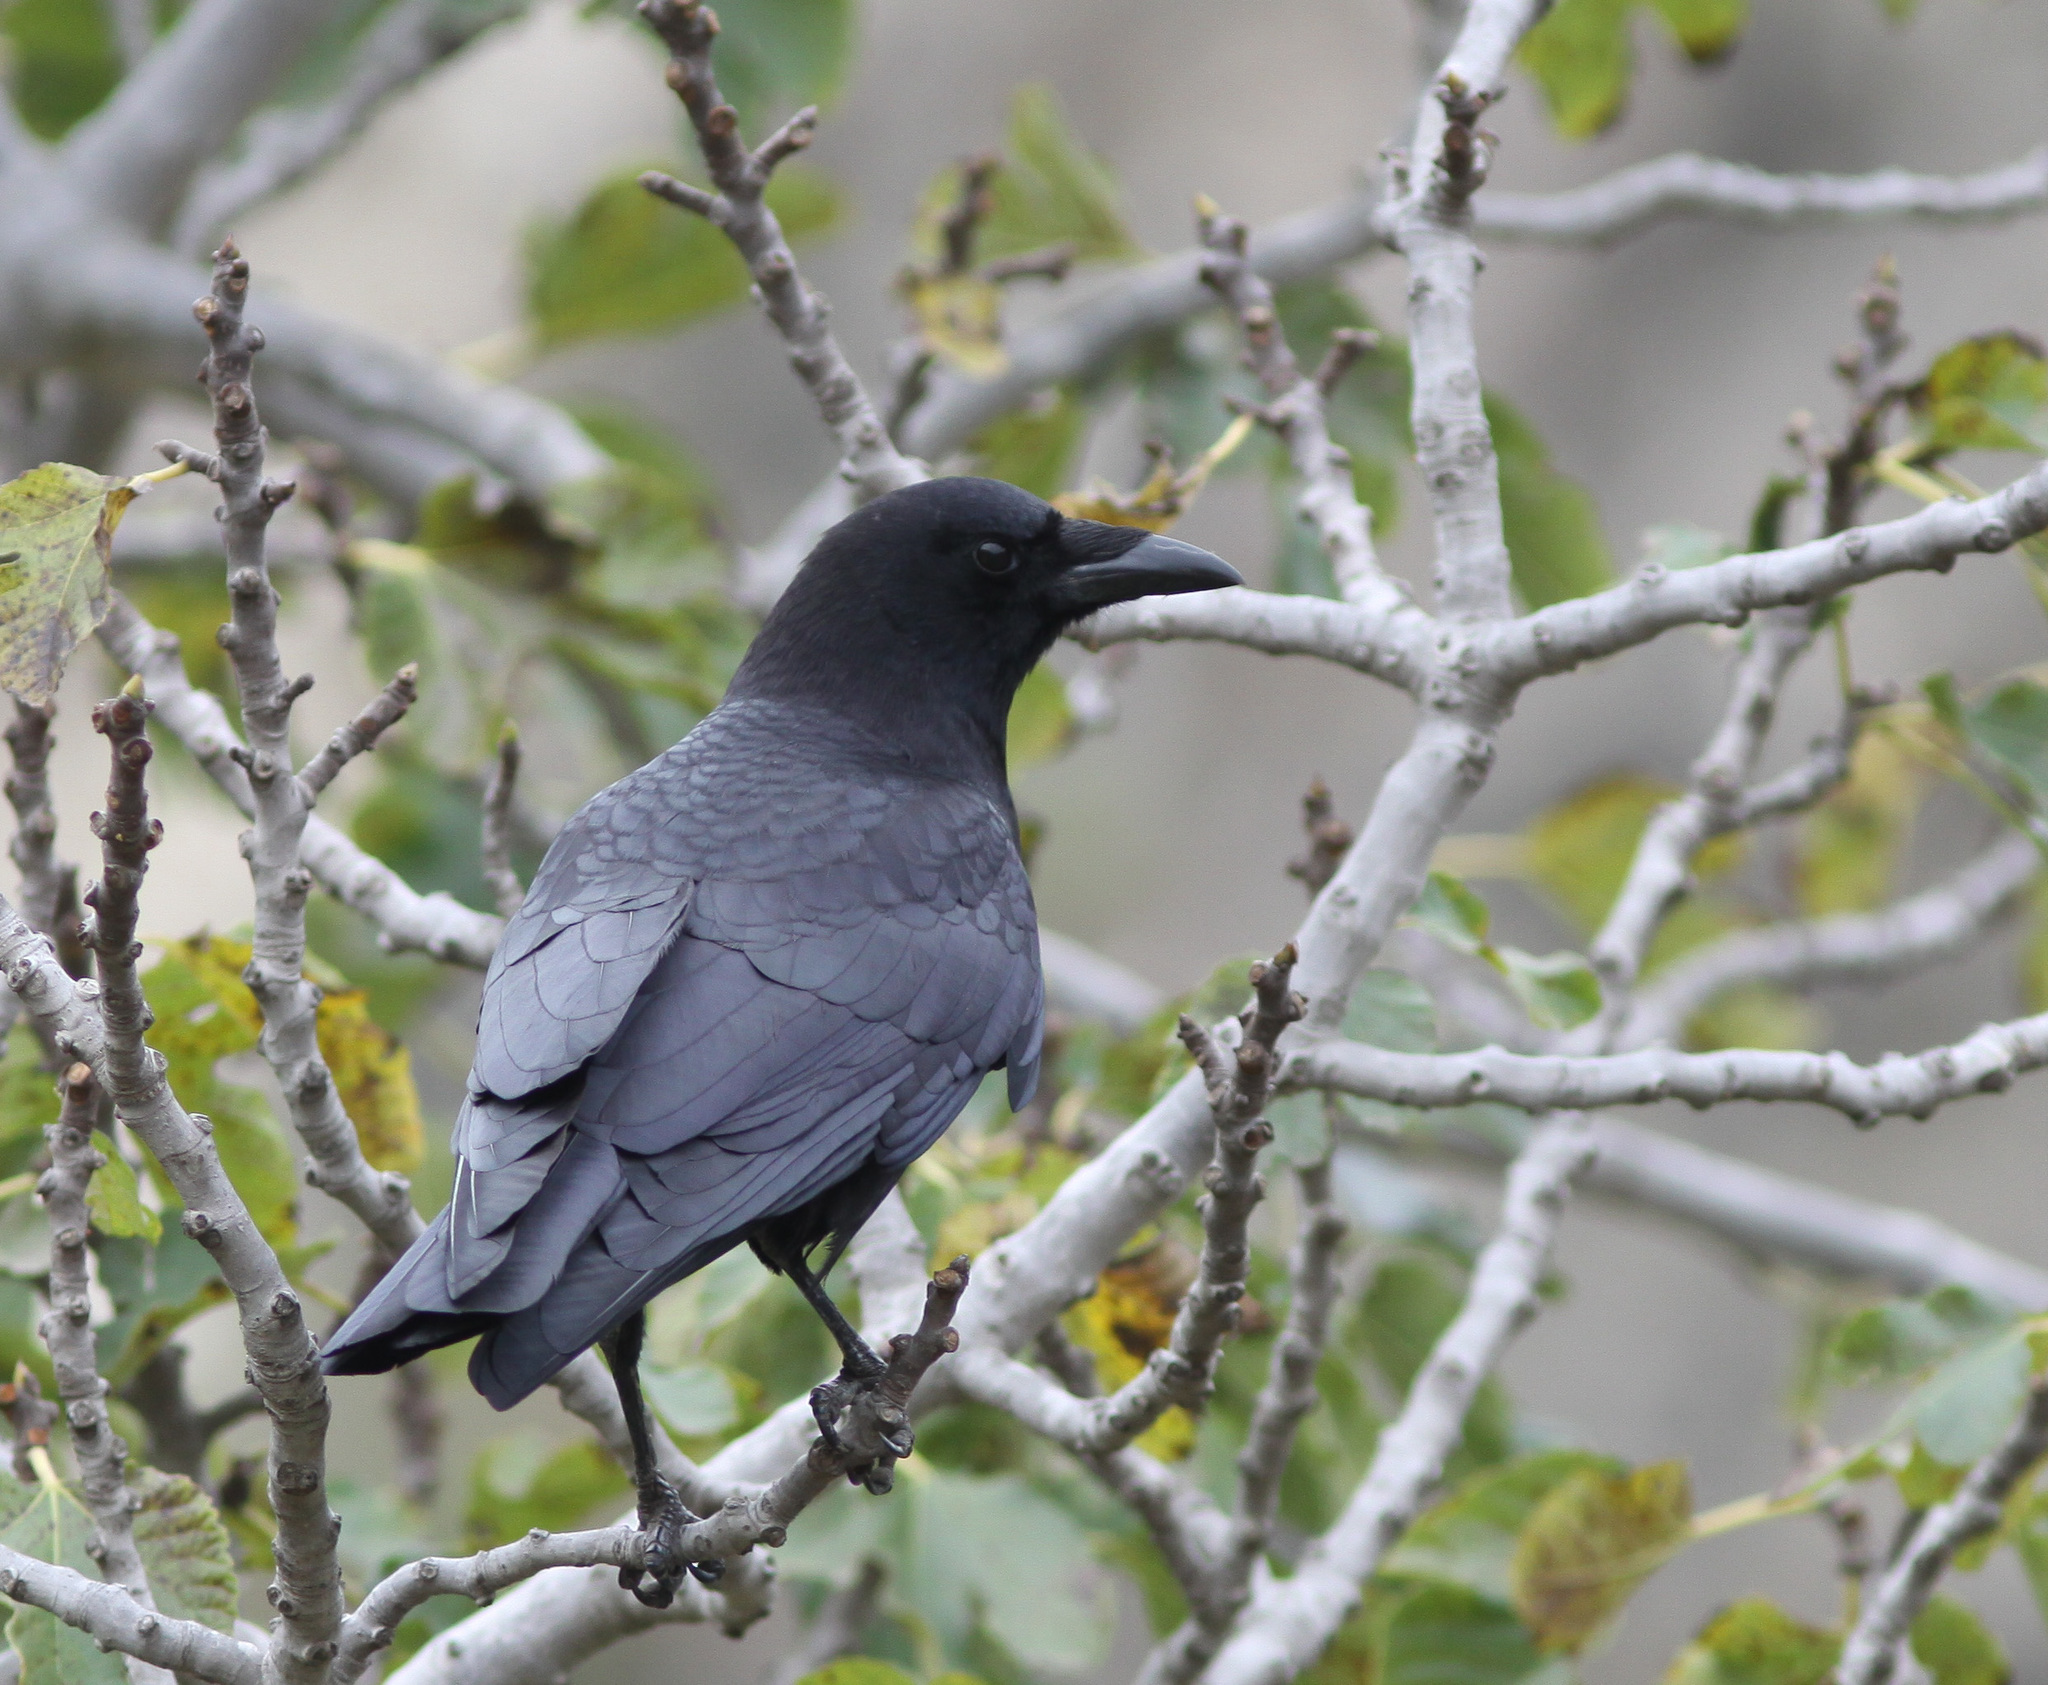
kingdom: Animalia
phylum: Chordata
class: Aves
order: Passeriformes
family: Corvidae
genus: Corvus
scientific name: Corvus brachyrhynchos
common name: American crow
